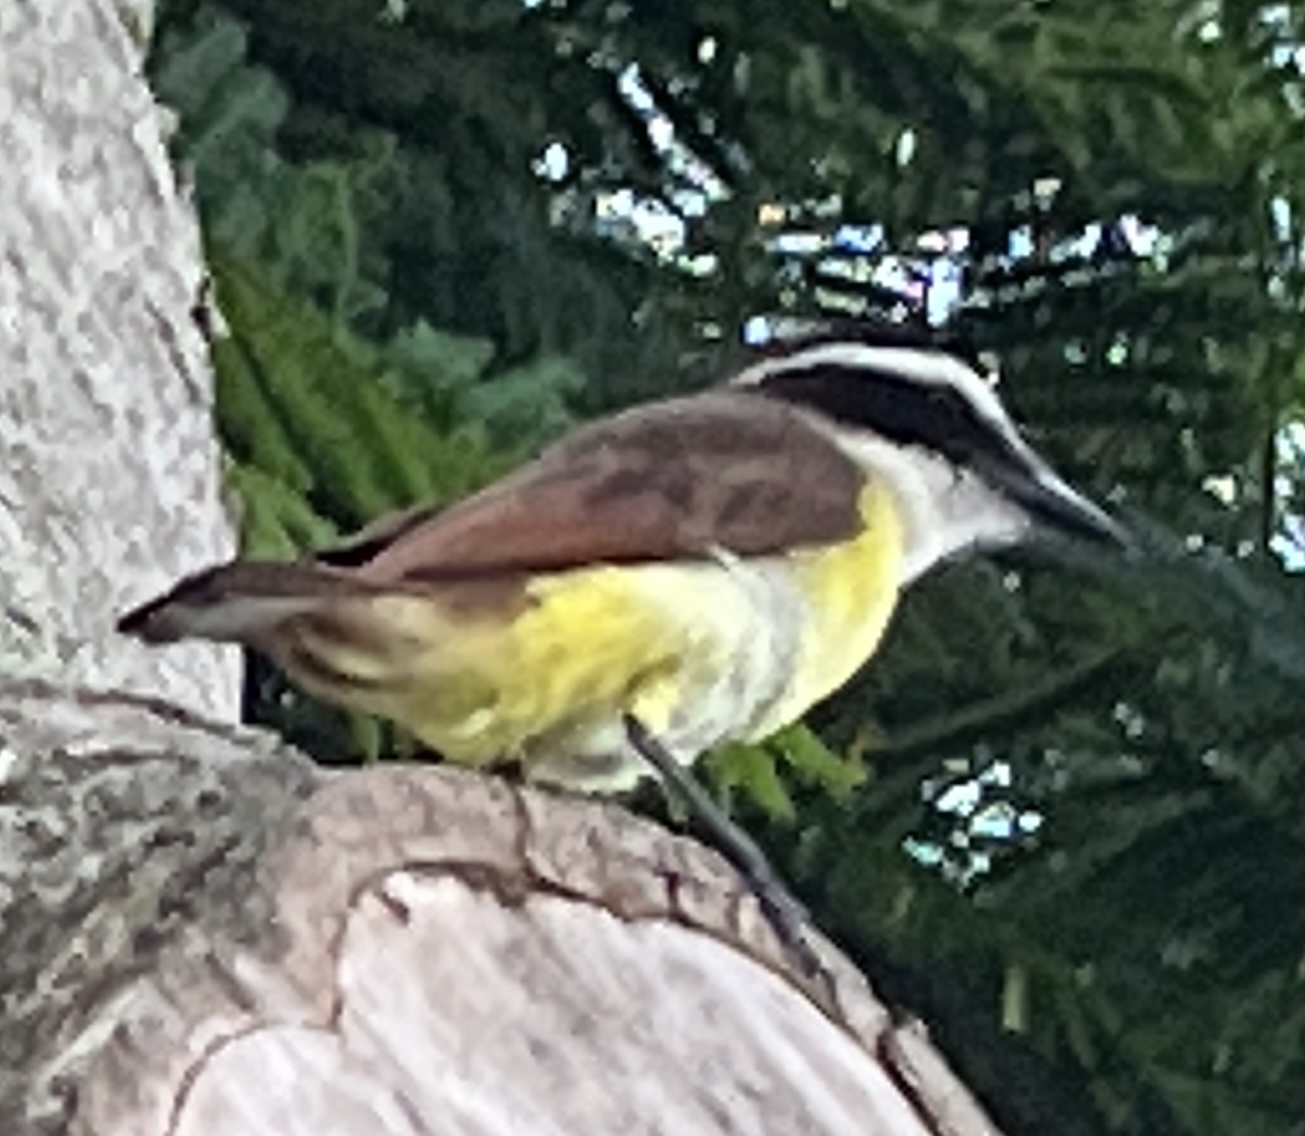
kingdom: Animalia
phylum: Chordata
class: Aves
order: Passeriformes
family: Tyrannidae
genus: Pitangus
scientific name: Pitangus sulphuratus
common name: Great kiskadee
